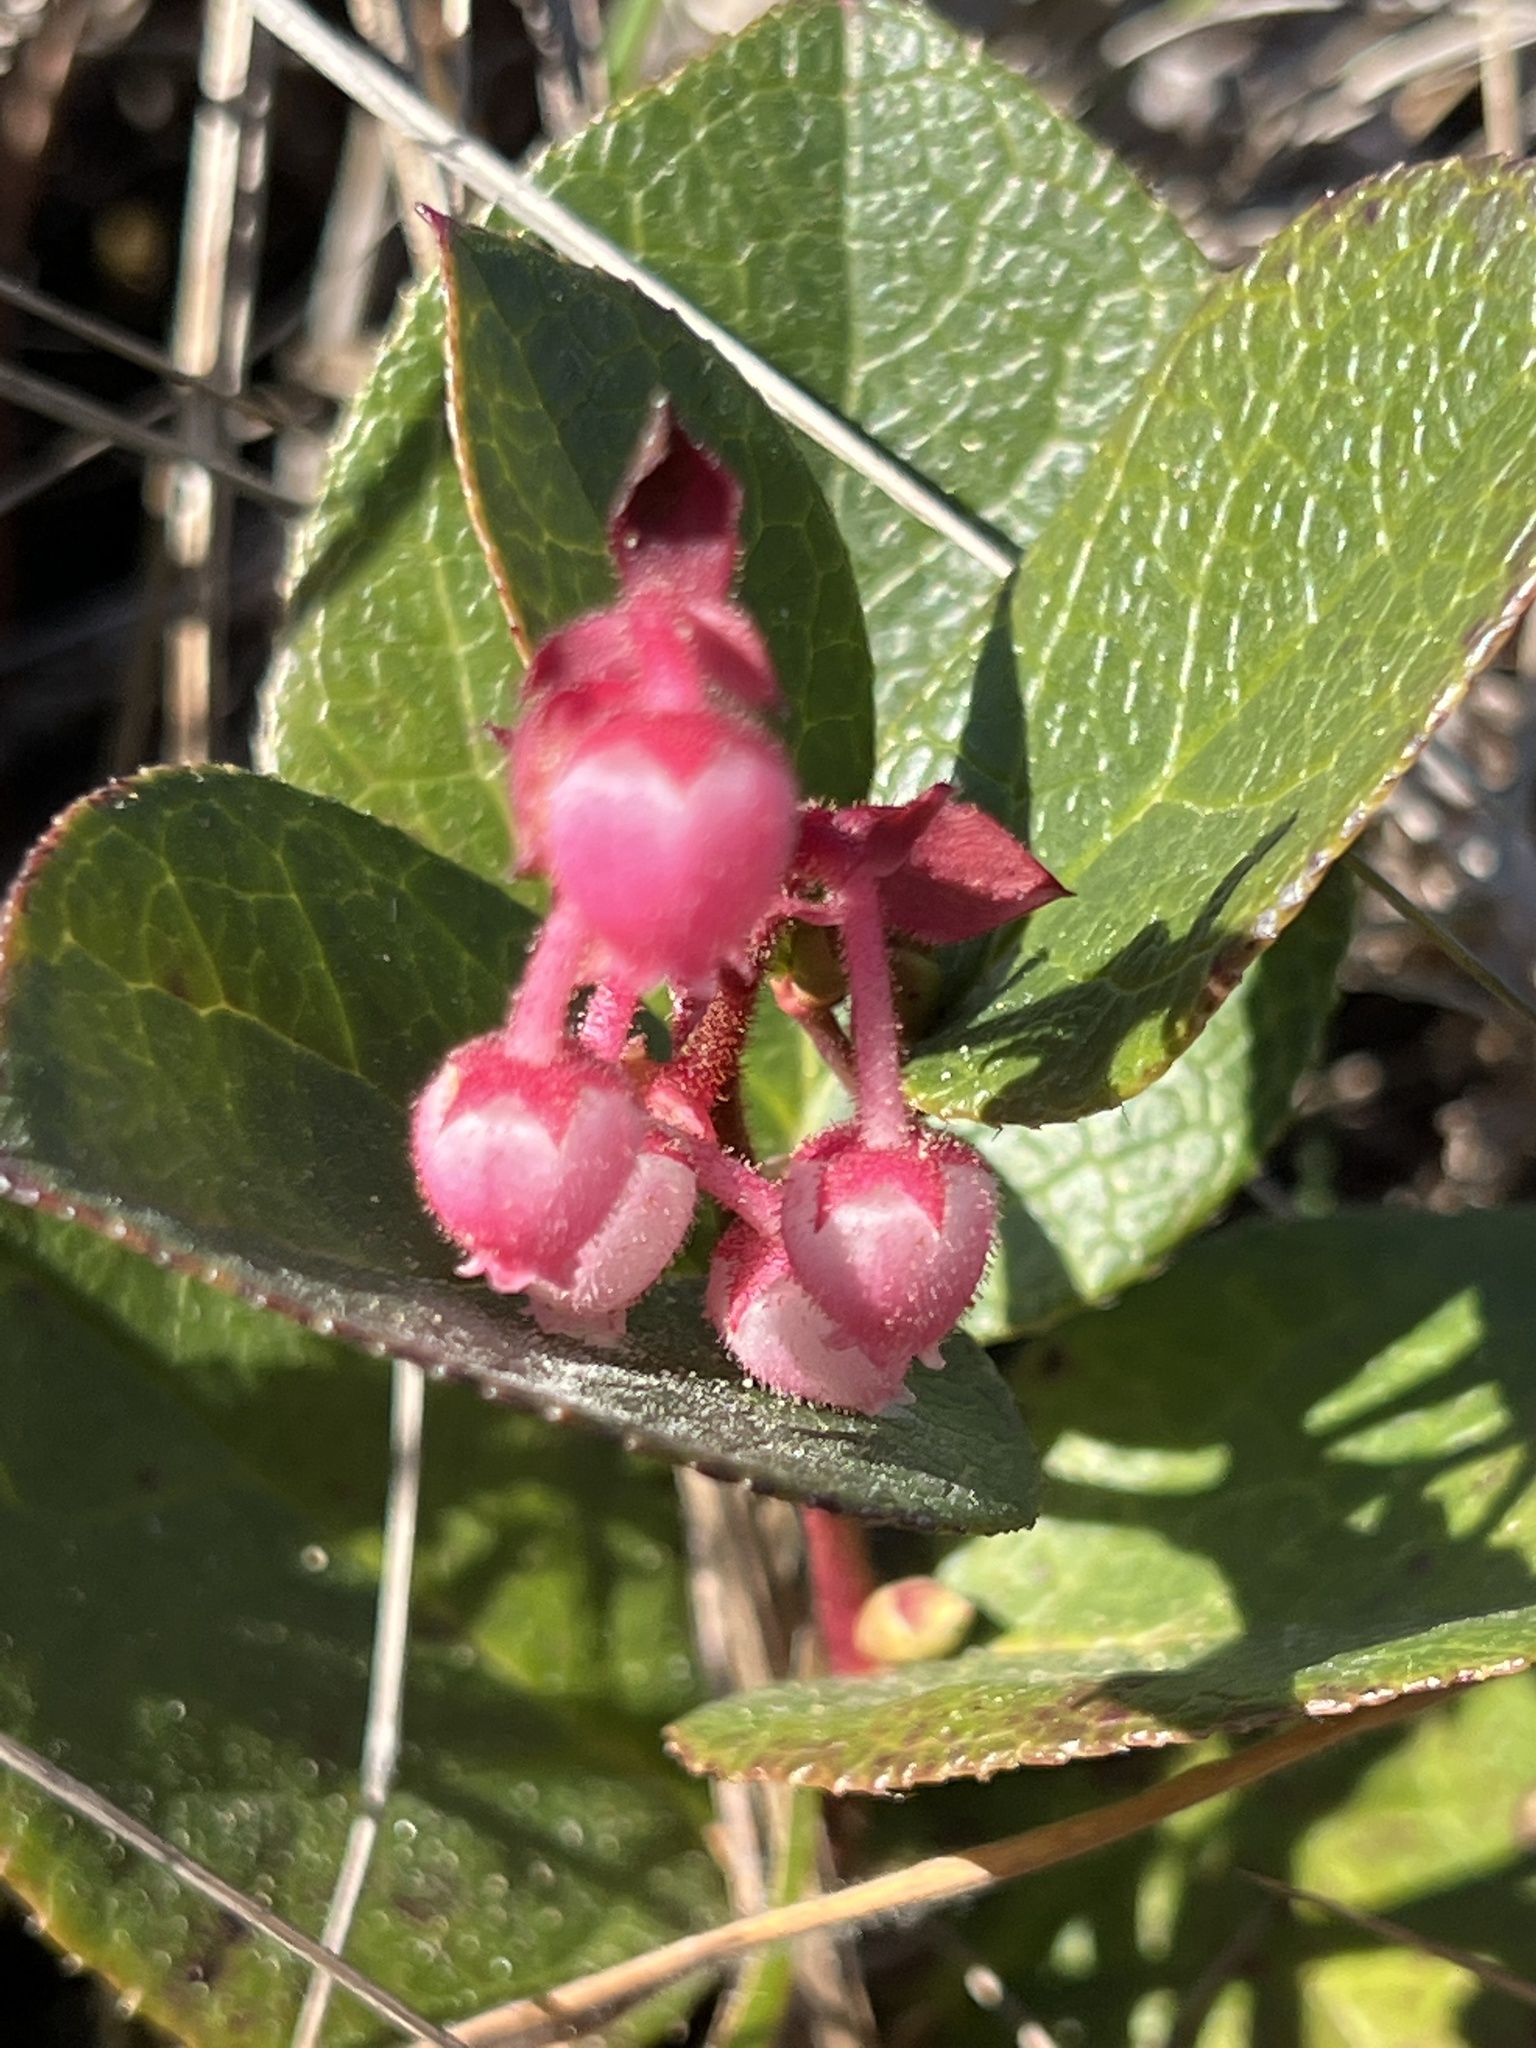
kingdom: Plantae
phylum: Tracheophyta
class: Magnoliopsida
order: Ericales
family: Ericaceae
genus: Gaultheria
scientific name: Gaultheria shallon
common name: Shallon
